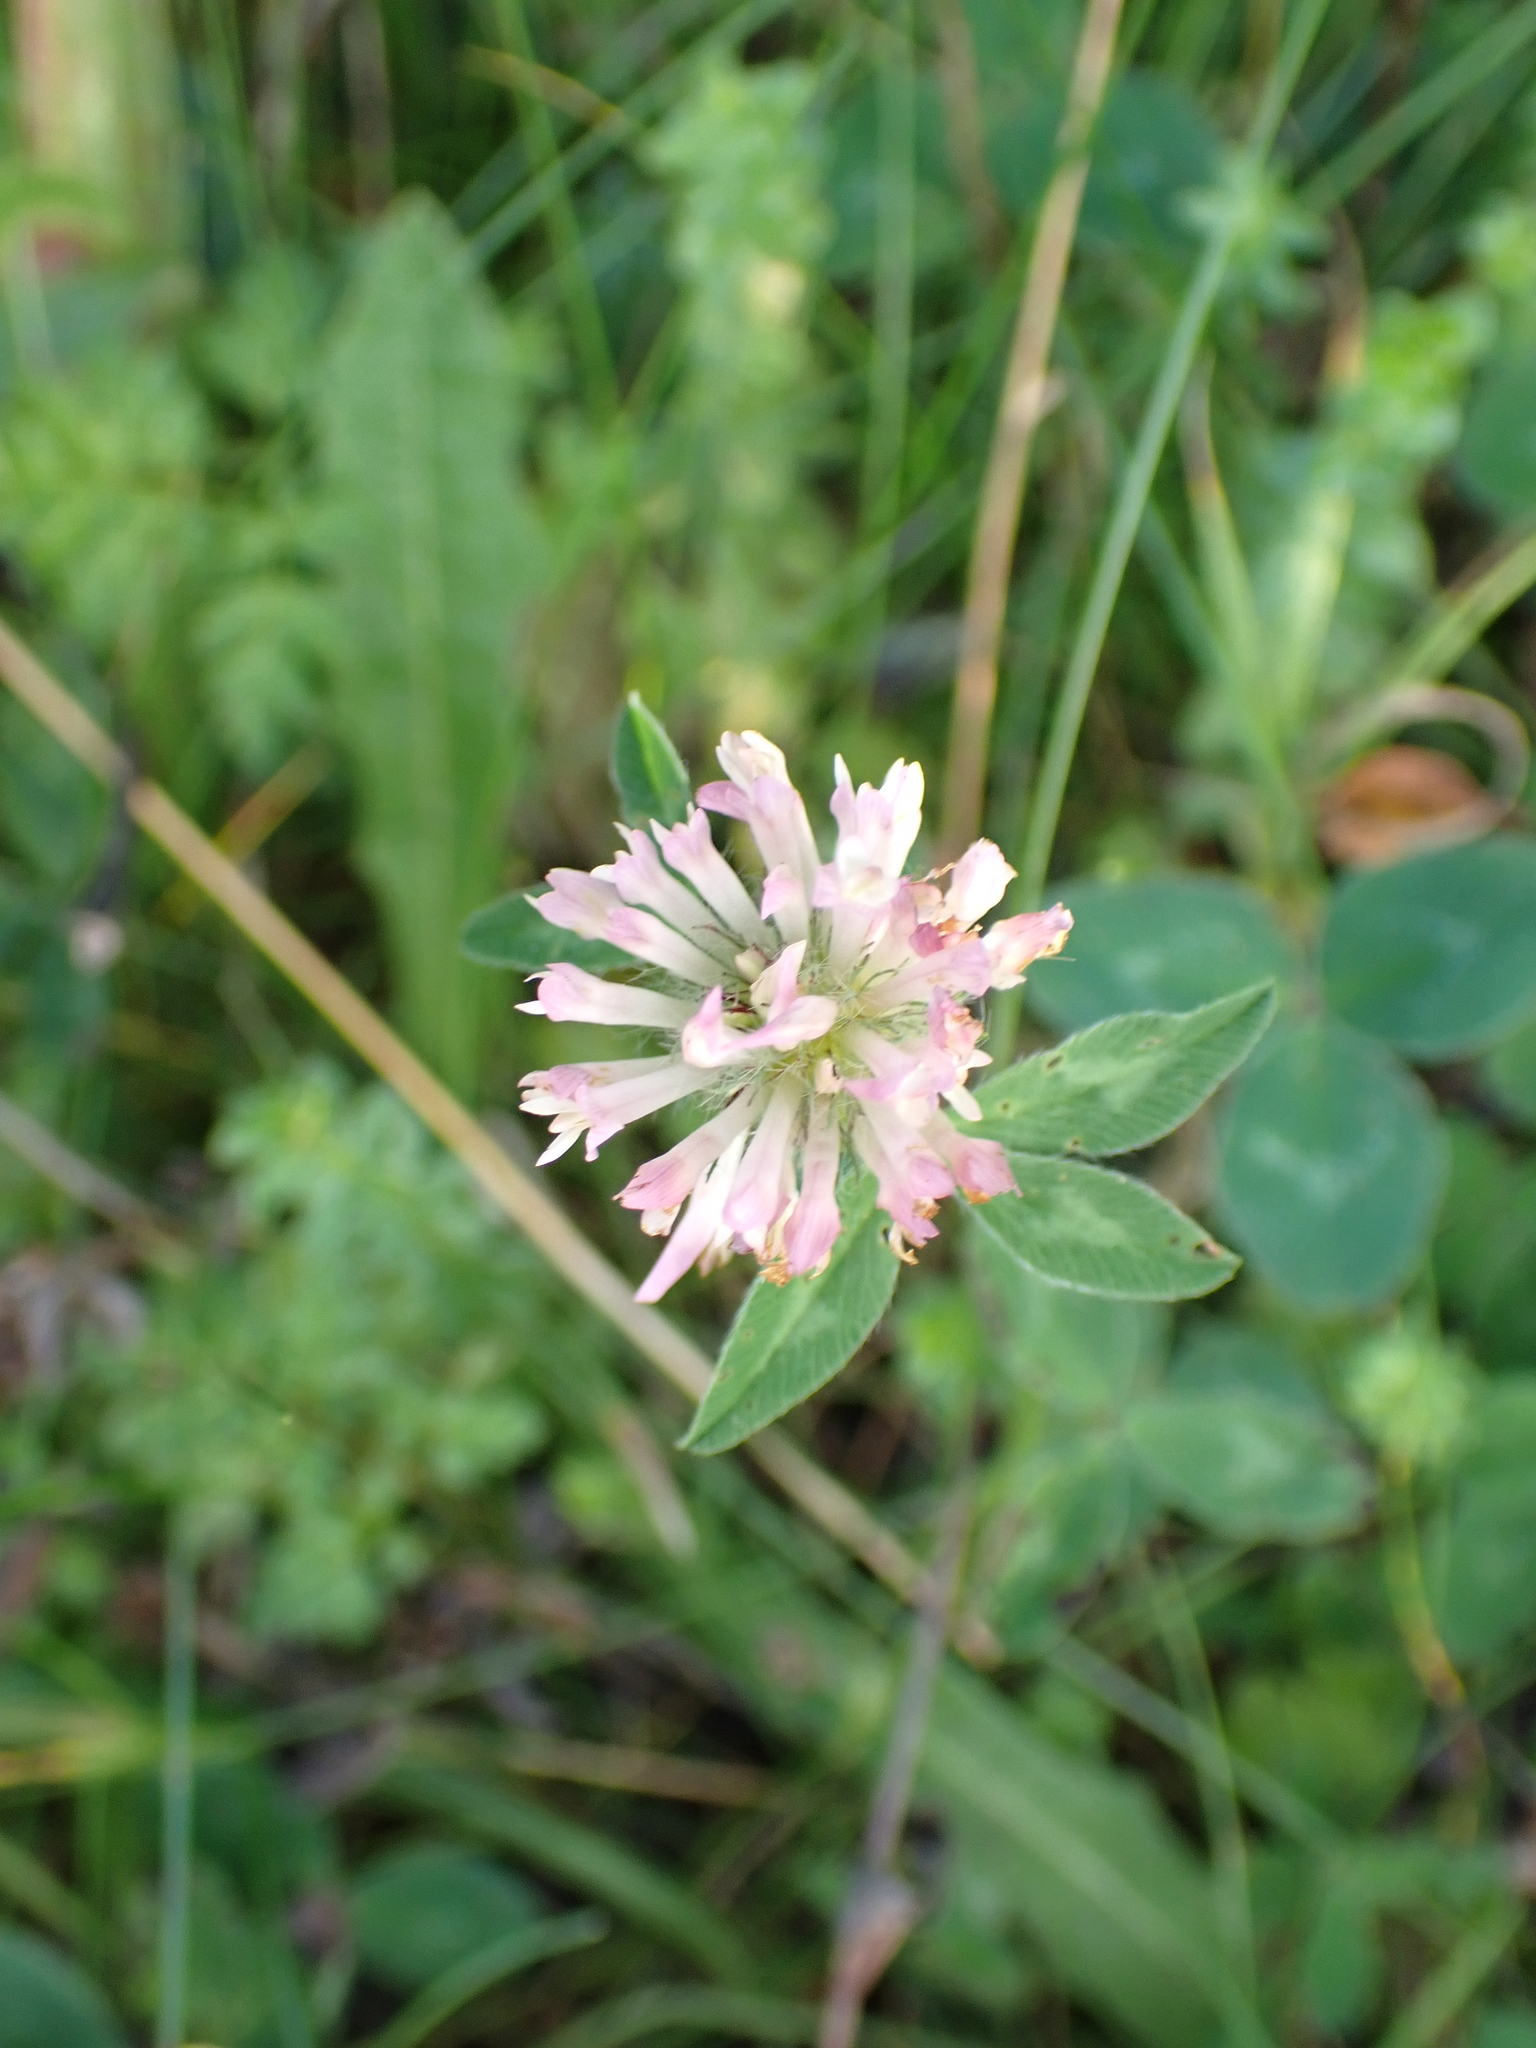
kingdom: Plantae
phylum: Tracheophyta
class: Magnoliopsida
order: Fabales
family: Fabaceae
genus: Trifolium
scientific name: Trifolium pratense
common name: Red clover
